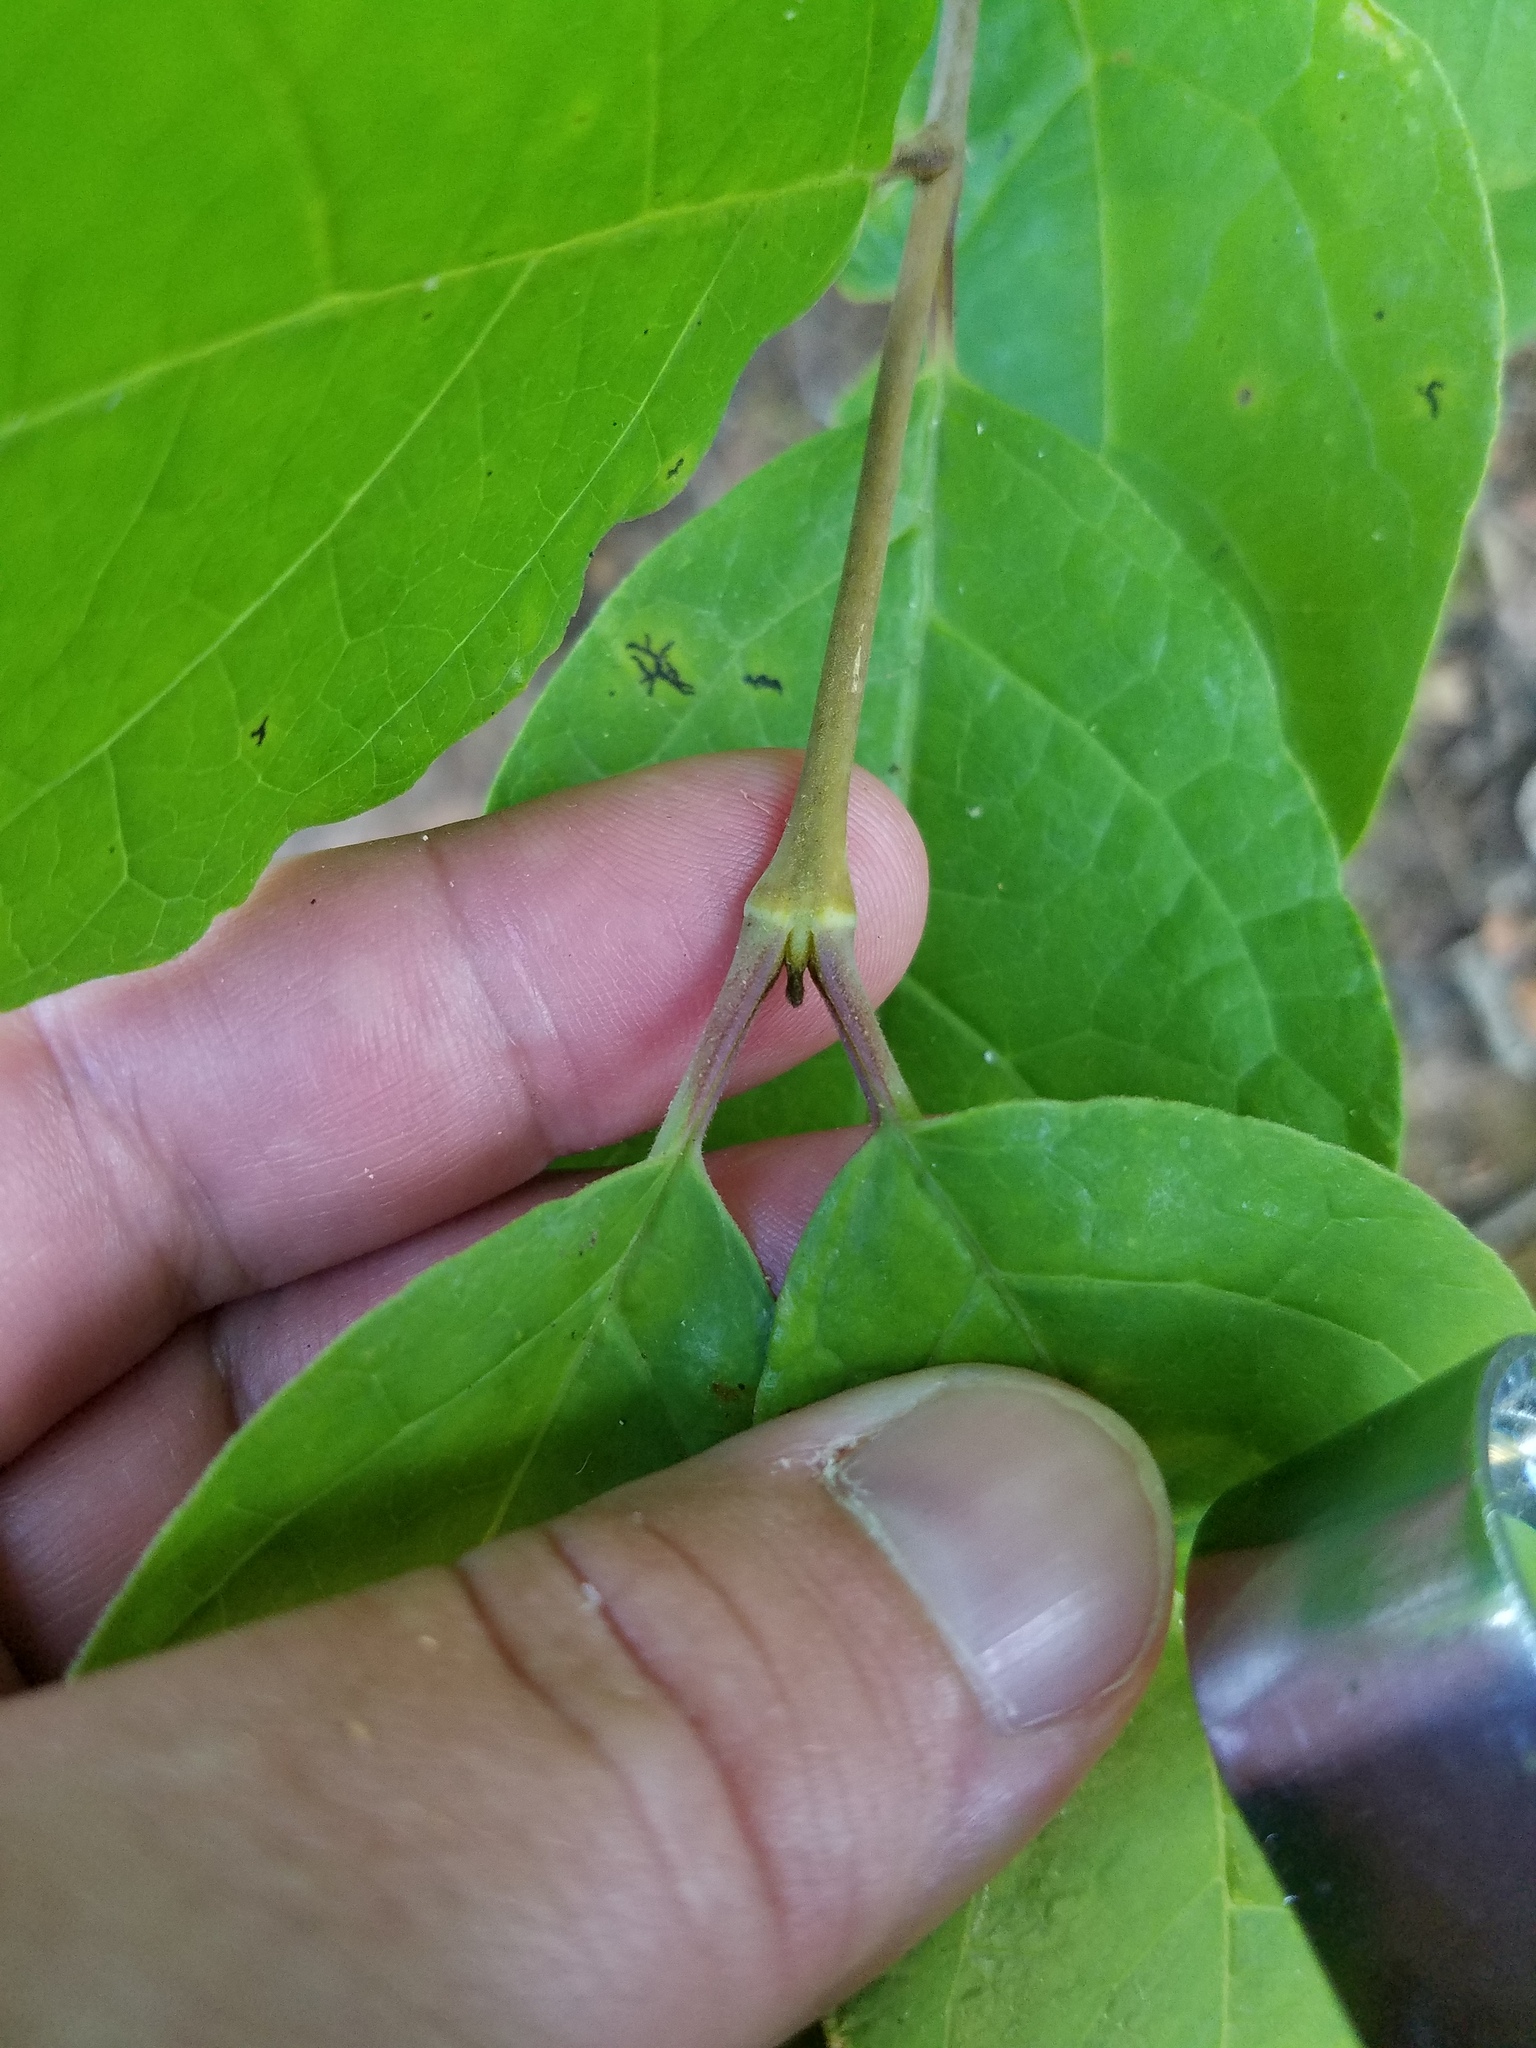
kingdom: Plantae
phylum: Tracheophyta
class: Magnoliopsida
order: Laurales
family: Calycanthaceae
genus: Calycanthus
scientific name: Calycanthus floridus
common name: Carolina-allspice
